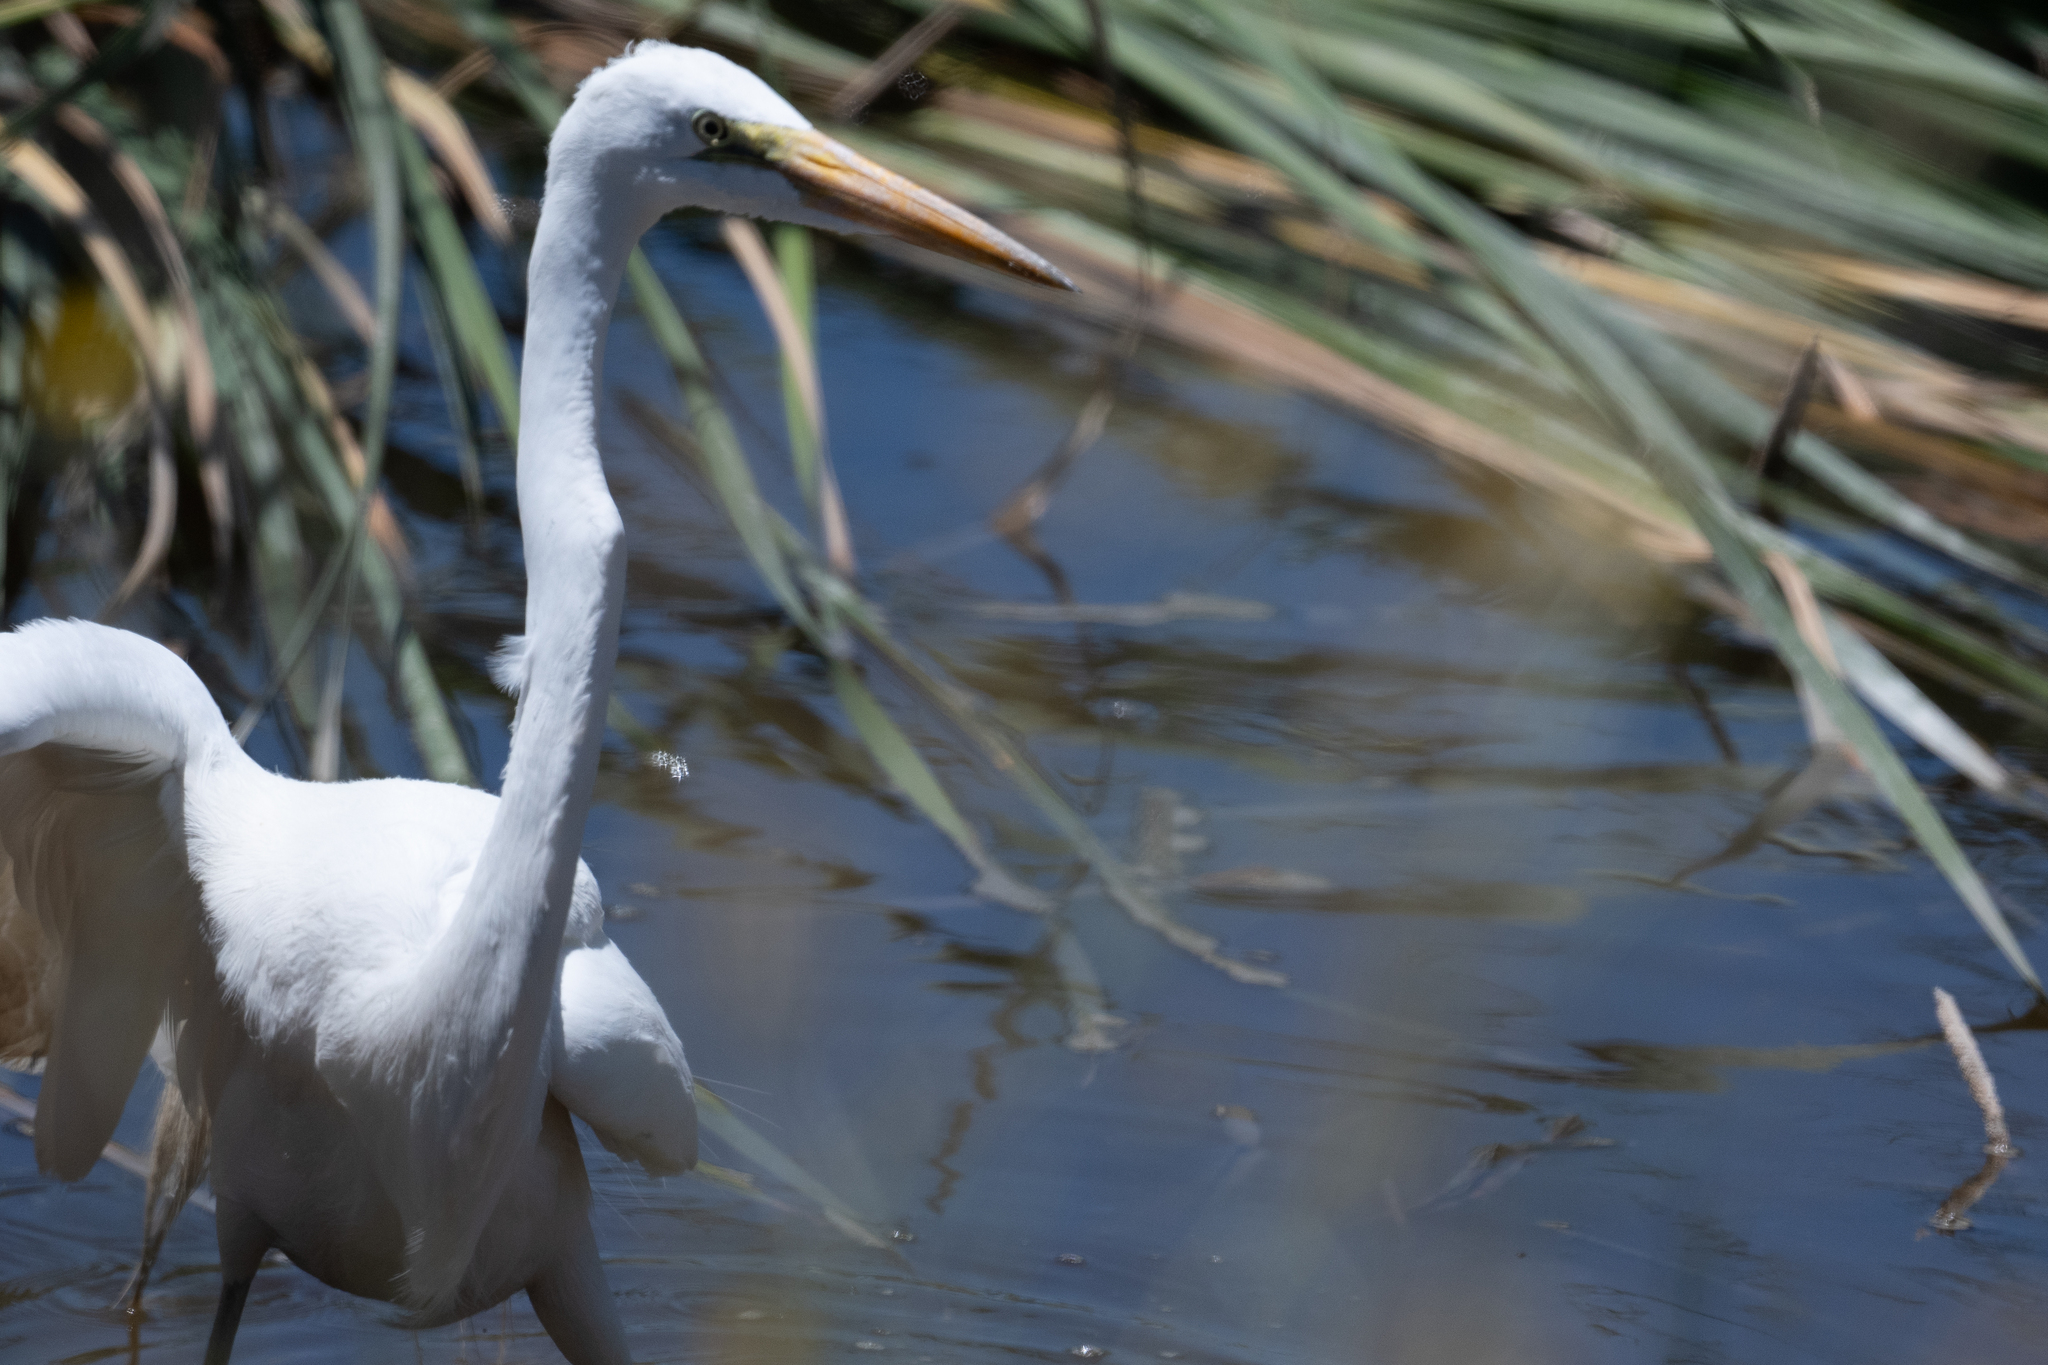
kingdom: Animalia
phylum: Chordata
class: Aves
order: Pelecaniformes
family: Ardeidae
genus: Ardea
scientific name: Ardea alba
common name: Great egret
